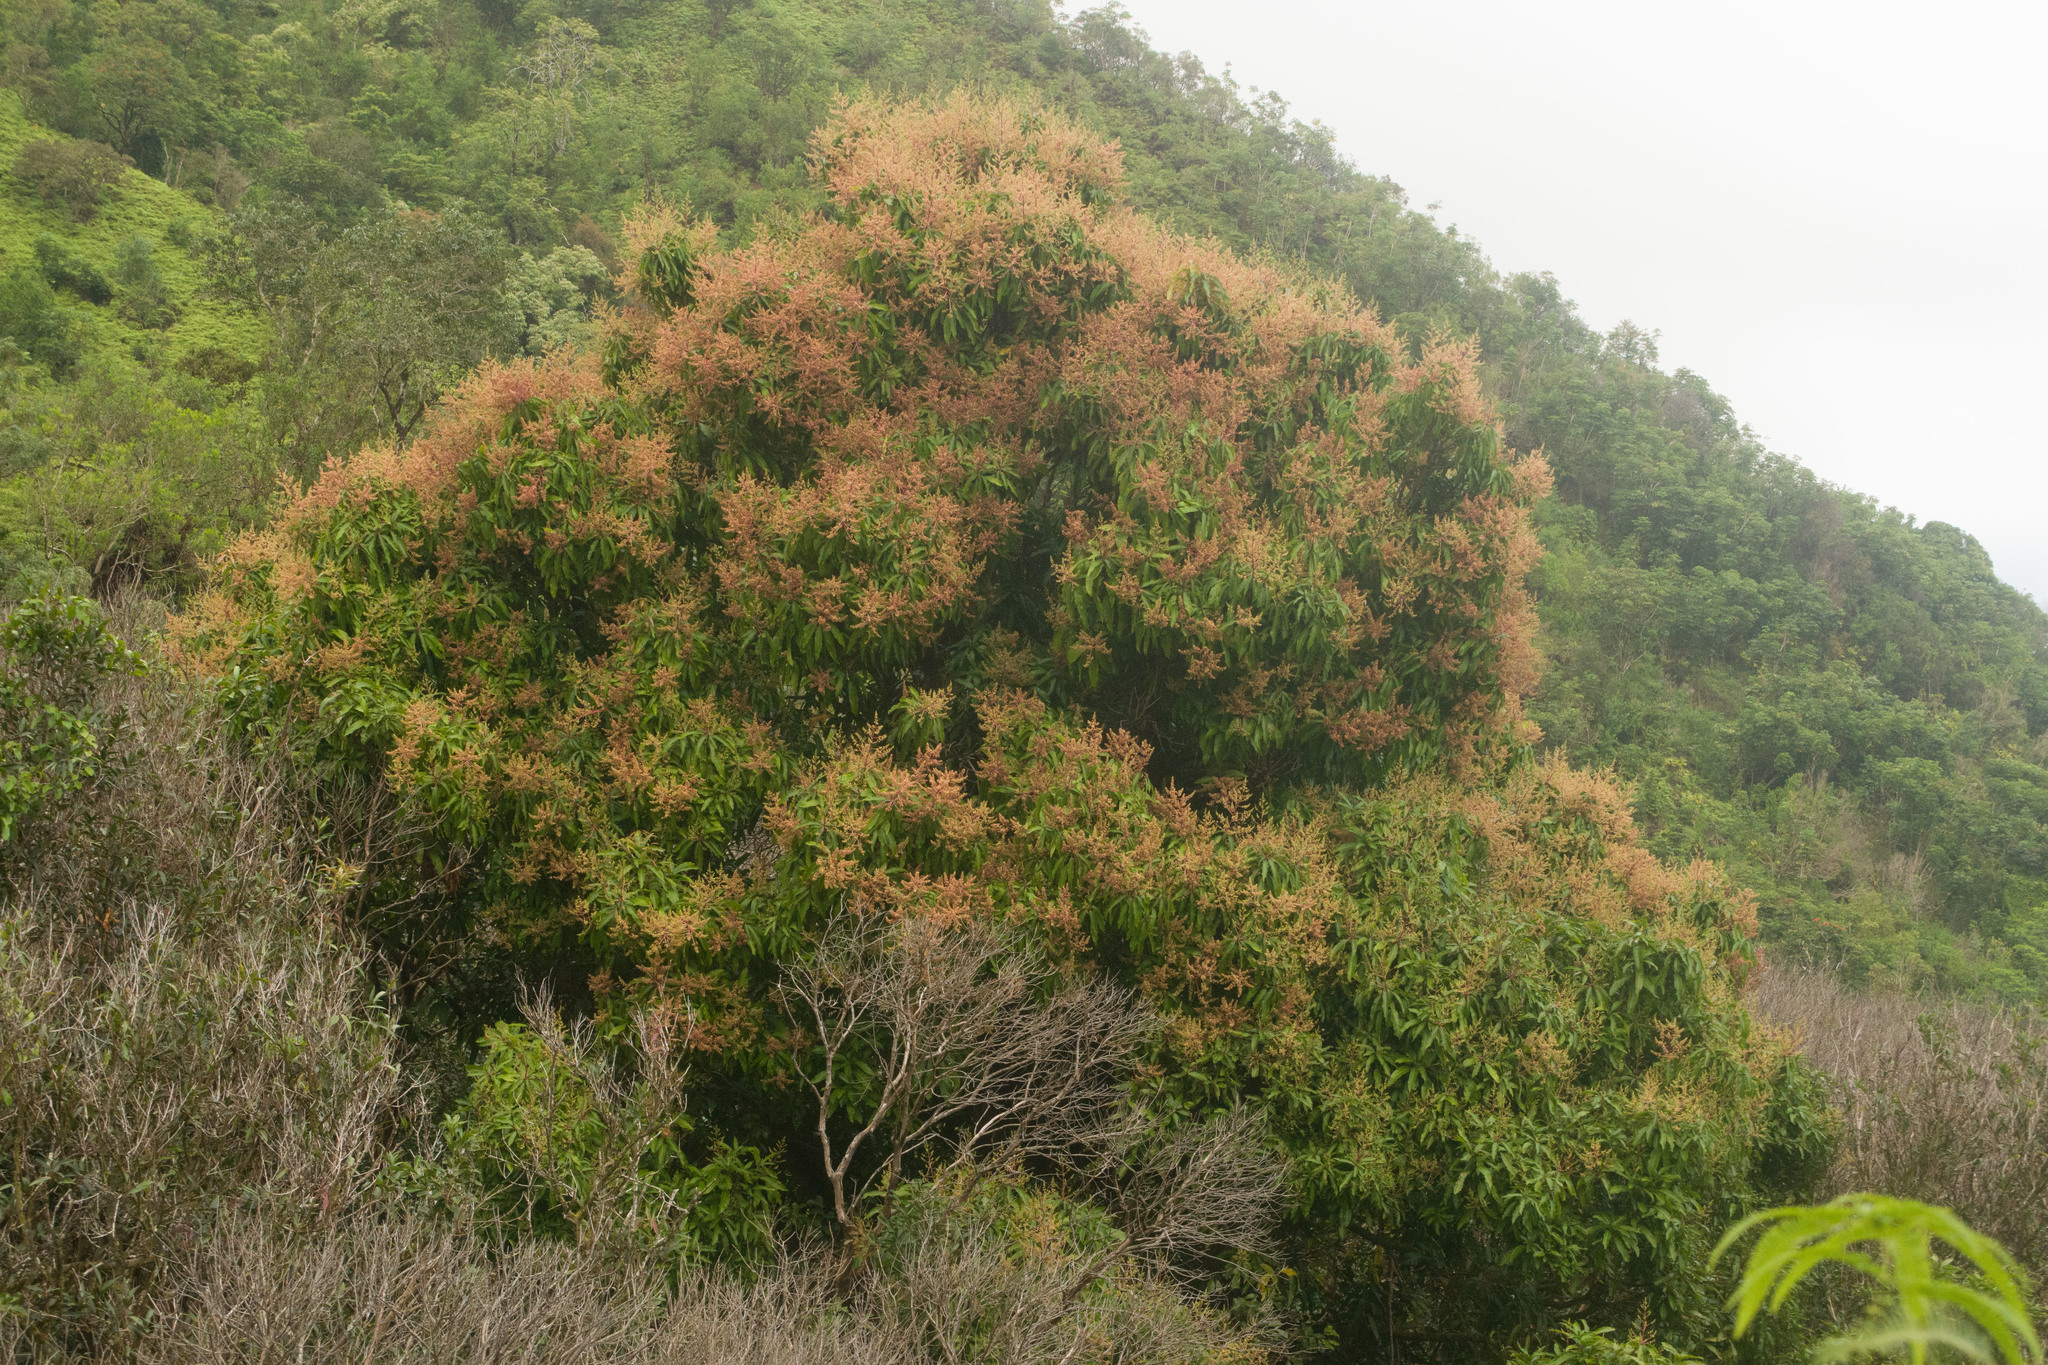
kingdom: Plantae
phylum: Tracheophyta
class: Magnoliopsida
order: Sapindales
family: Anacardiaceae
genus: Mangifera
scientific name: Mangifera indica
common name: Mango
